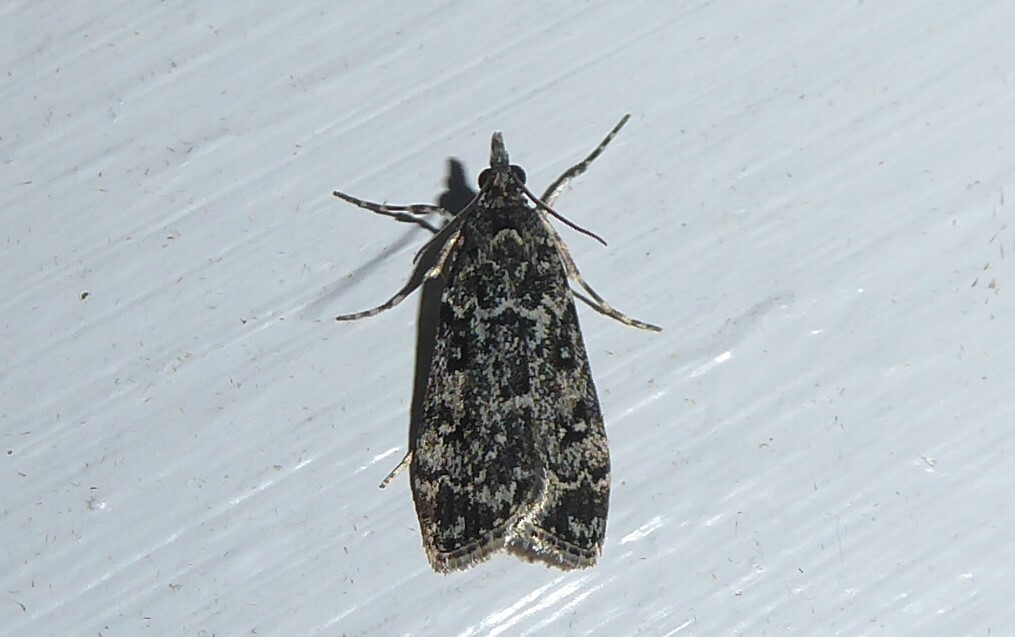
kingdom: Animalia
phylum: Arthropoda
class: Insecta
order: Lepidoptera
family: Crambidae
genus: Eudonia
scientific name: Eudonia philerga
